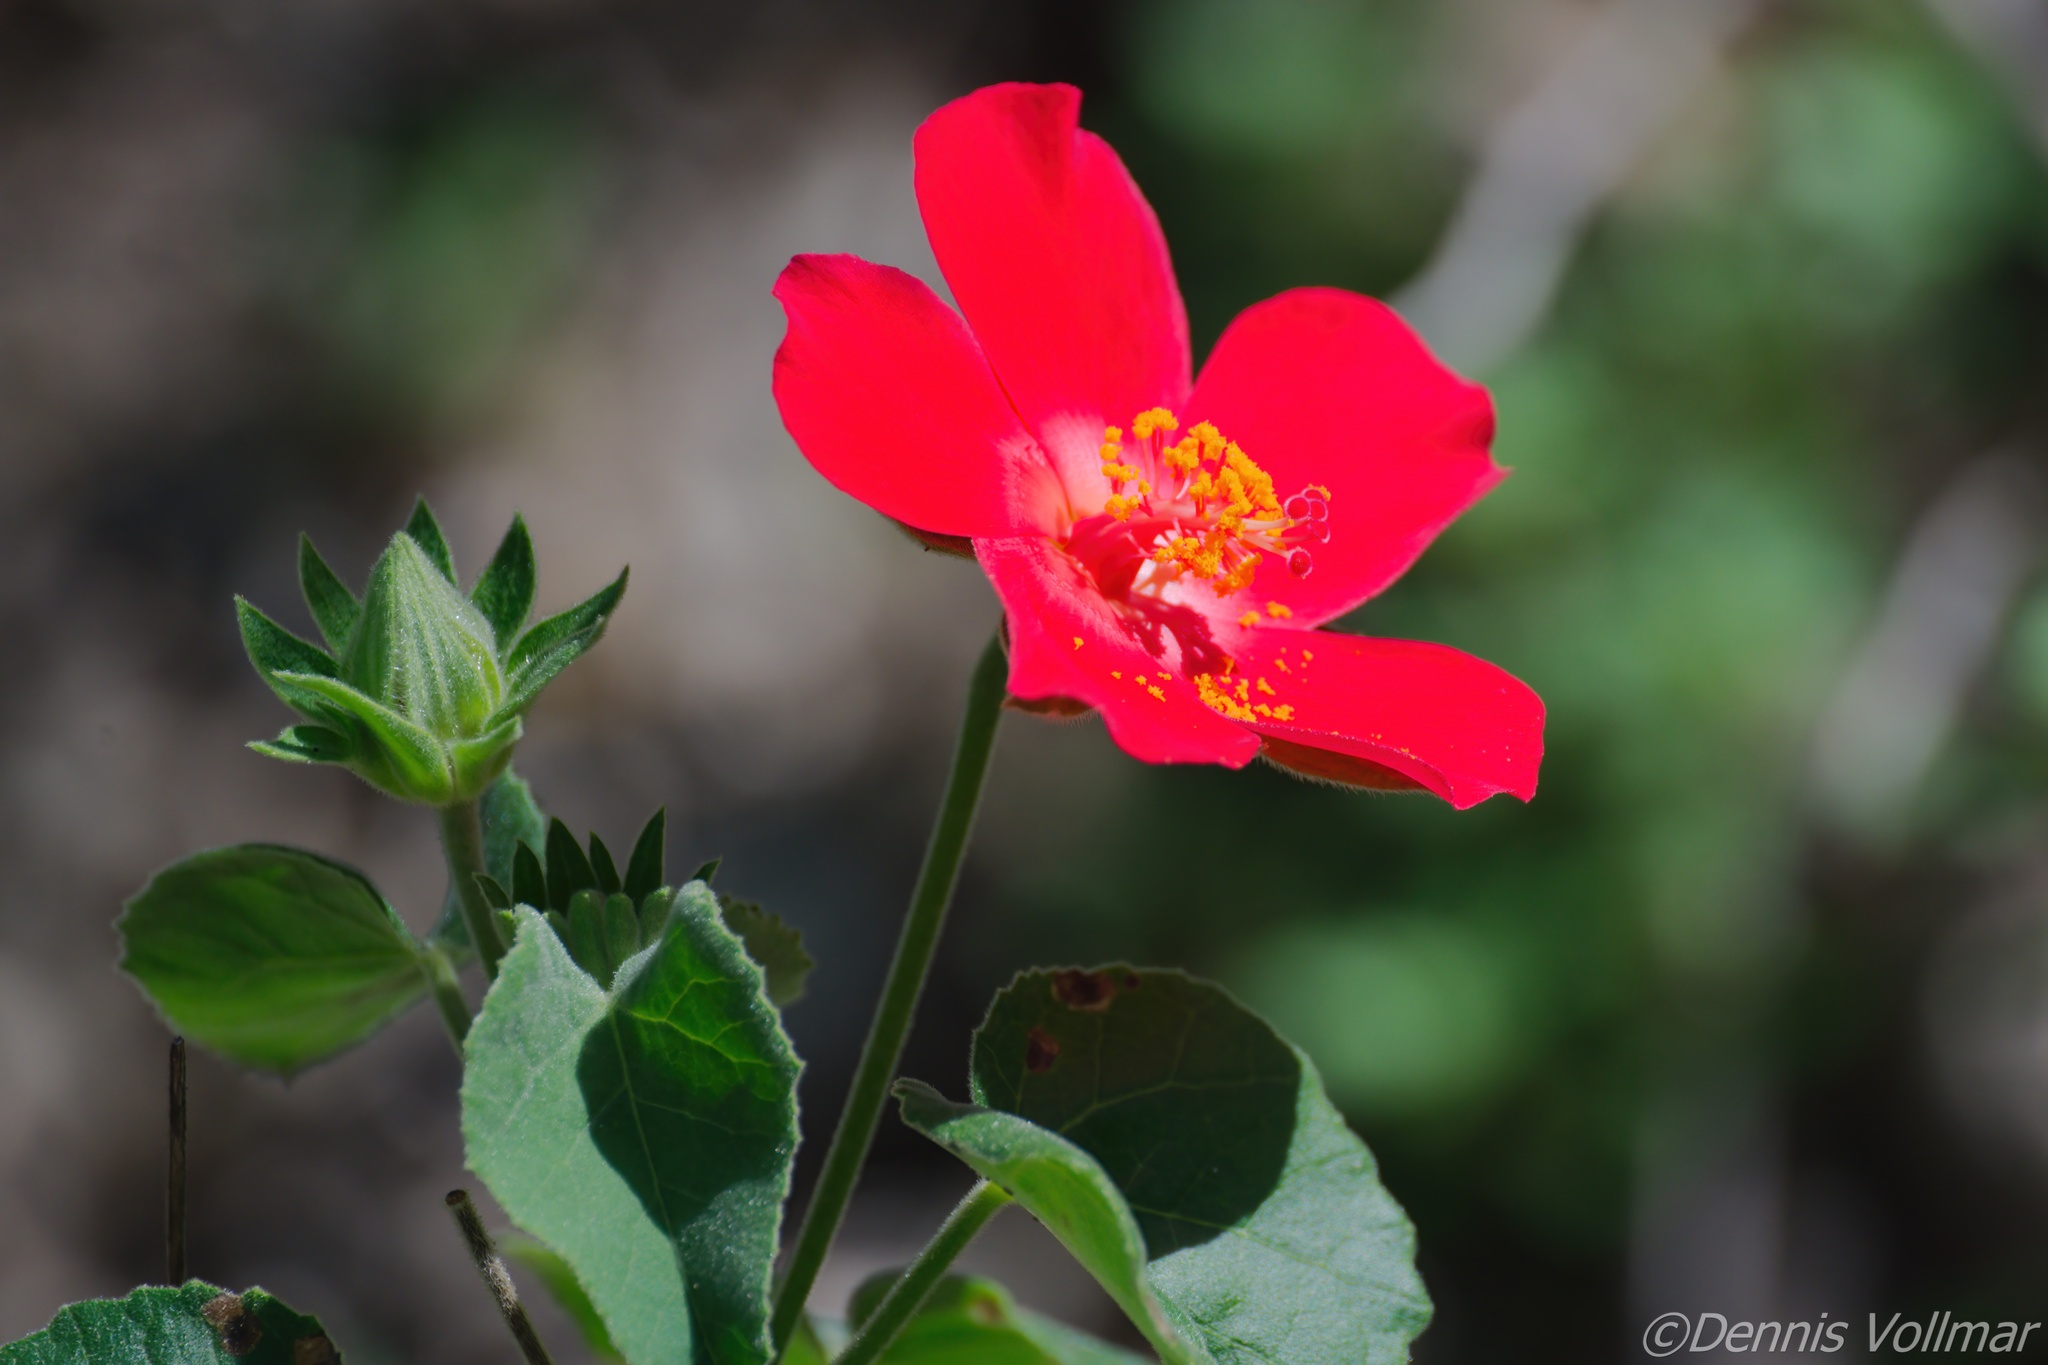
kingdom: Plantae
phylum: Tracheophyta
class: Magnoliopsida
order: Malvales
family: Malvaceae
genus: Hibiscus
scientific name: Hibiscus martianus
